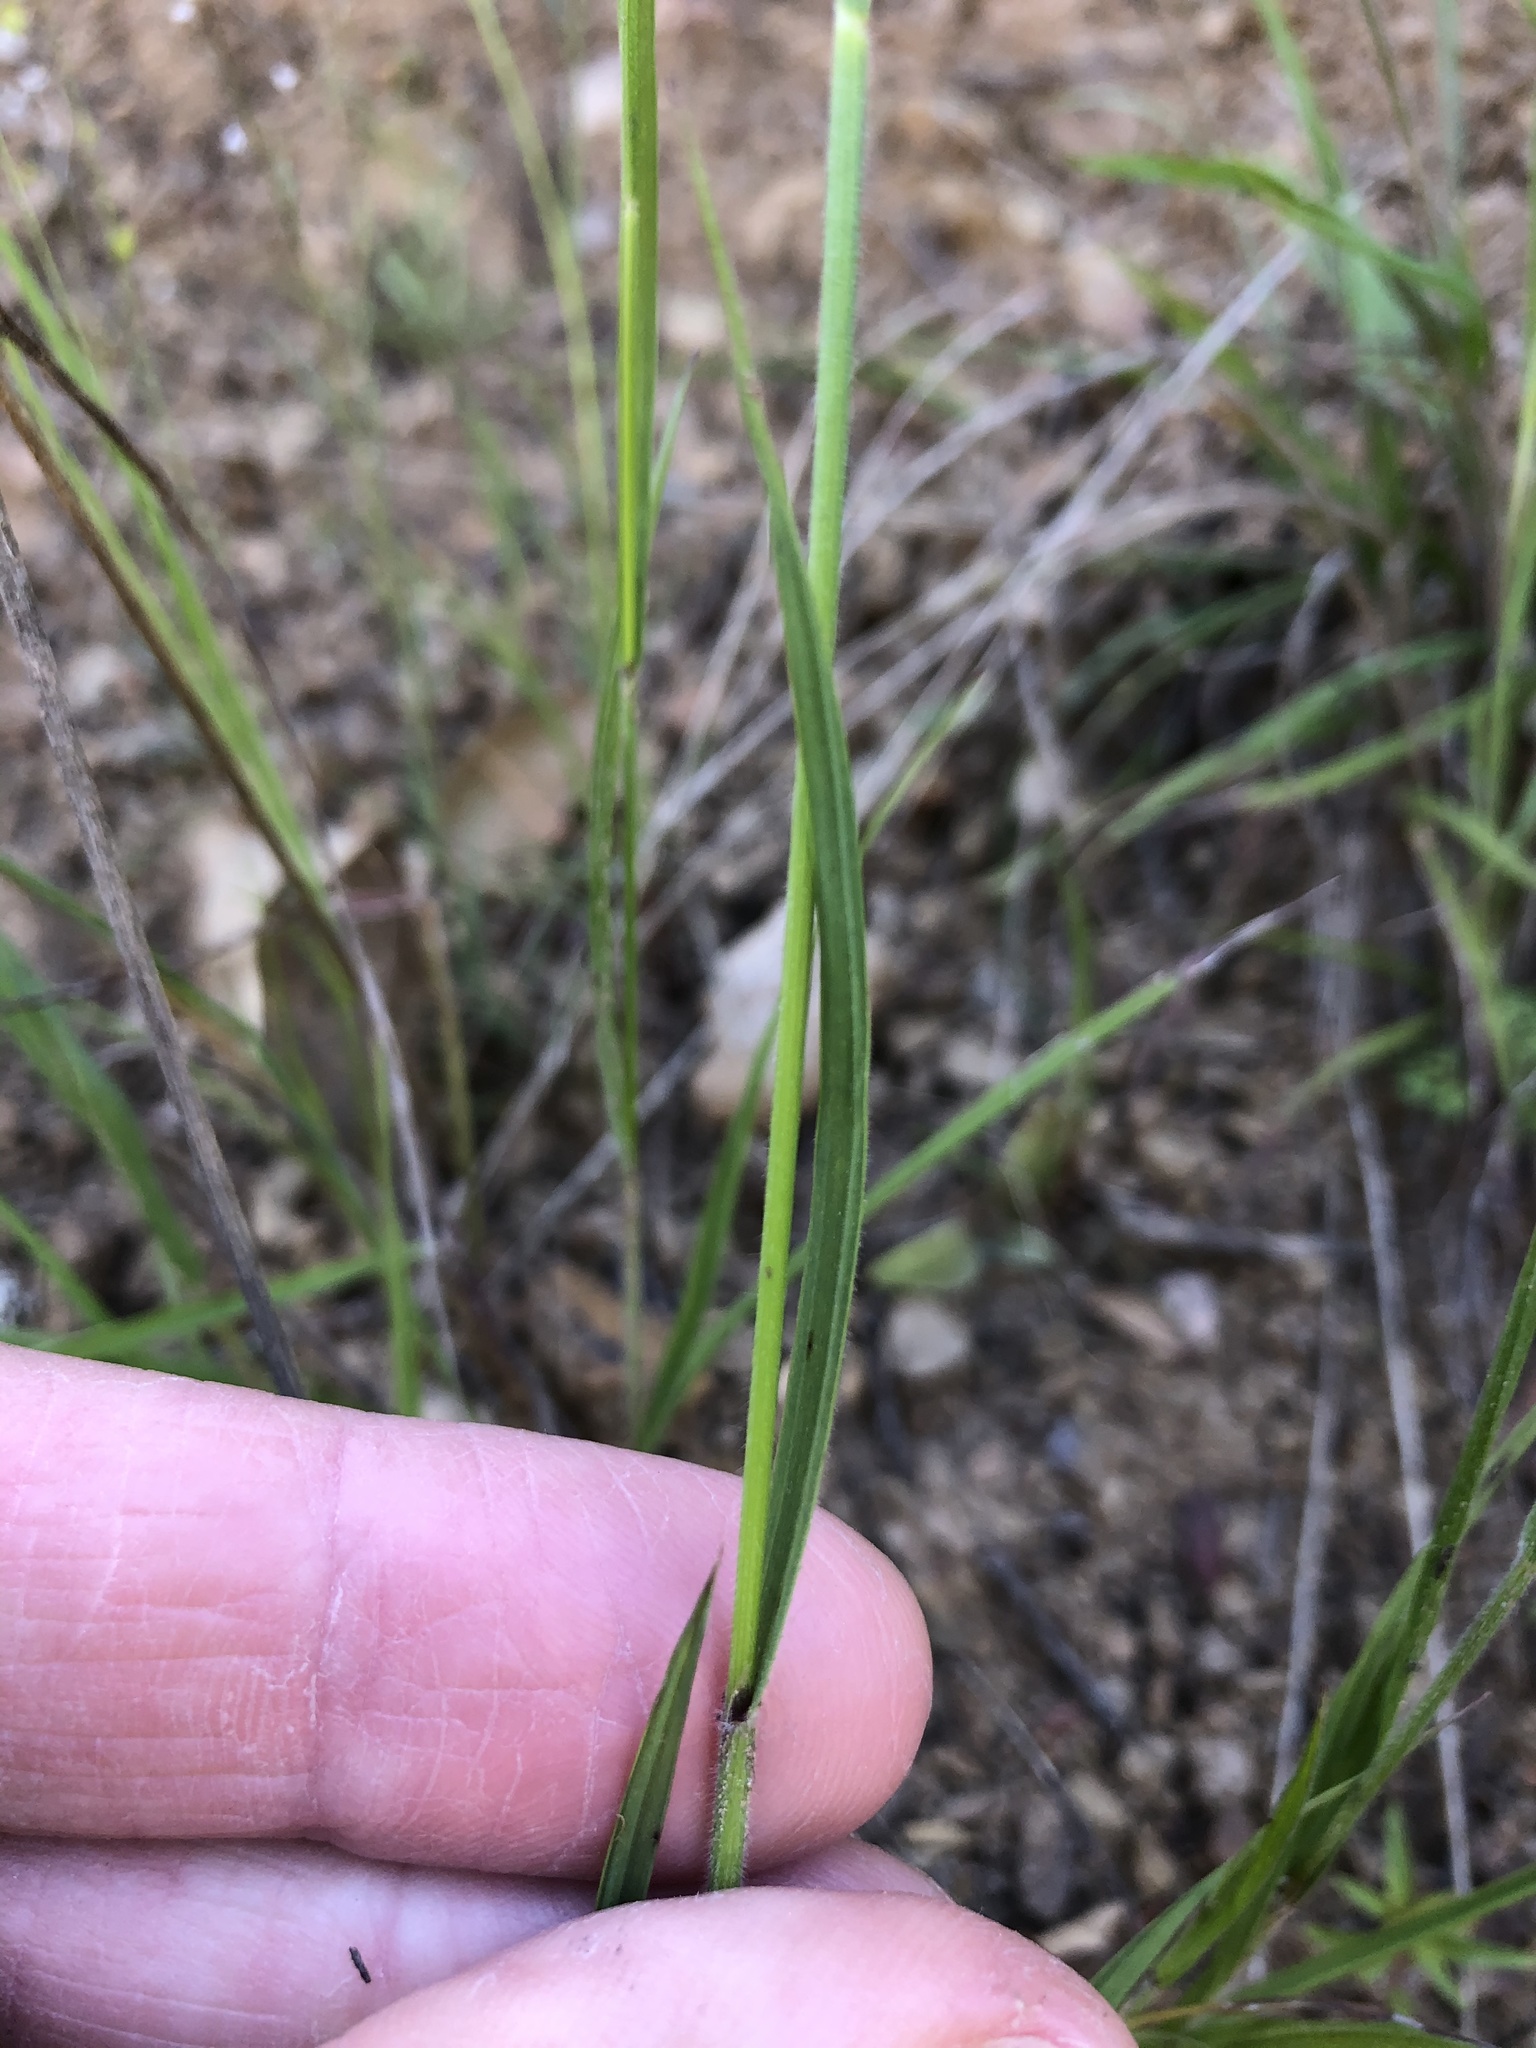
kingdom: Plantae
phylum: Tracheophyta
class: Liliopsida
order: Poales
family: Poaceae
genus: Melica
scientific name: Melica imperfecta
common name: California melic
